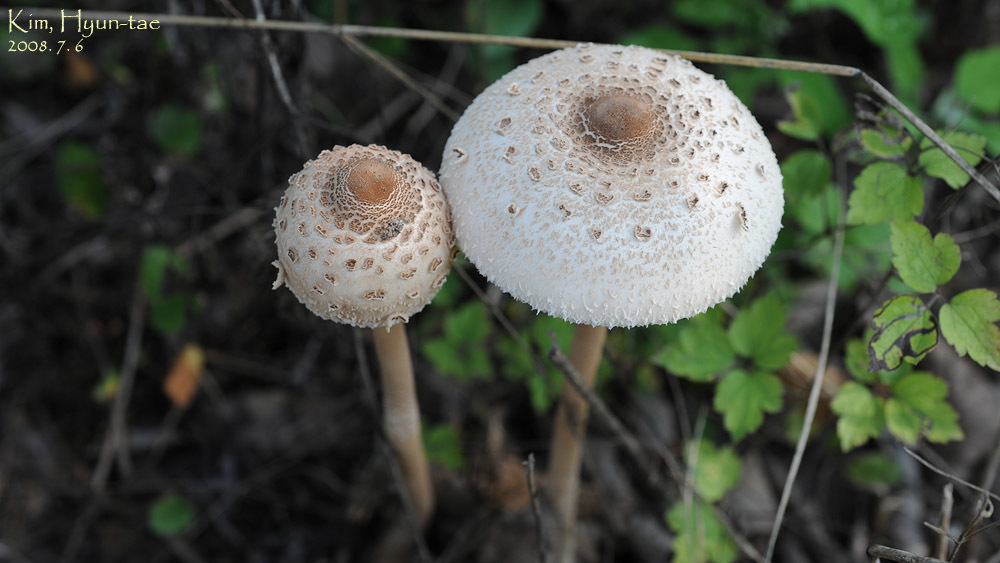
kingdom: Fungi
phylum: Basidiomycota
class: Agaricomycetes
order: Agaricales
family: Agaricaceae
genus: Macrolepiota
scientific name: Macrolepiota procera
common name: Parasol
